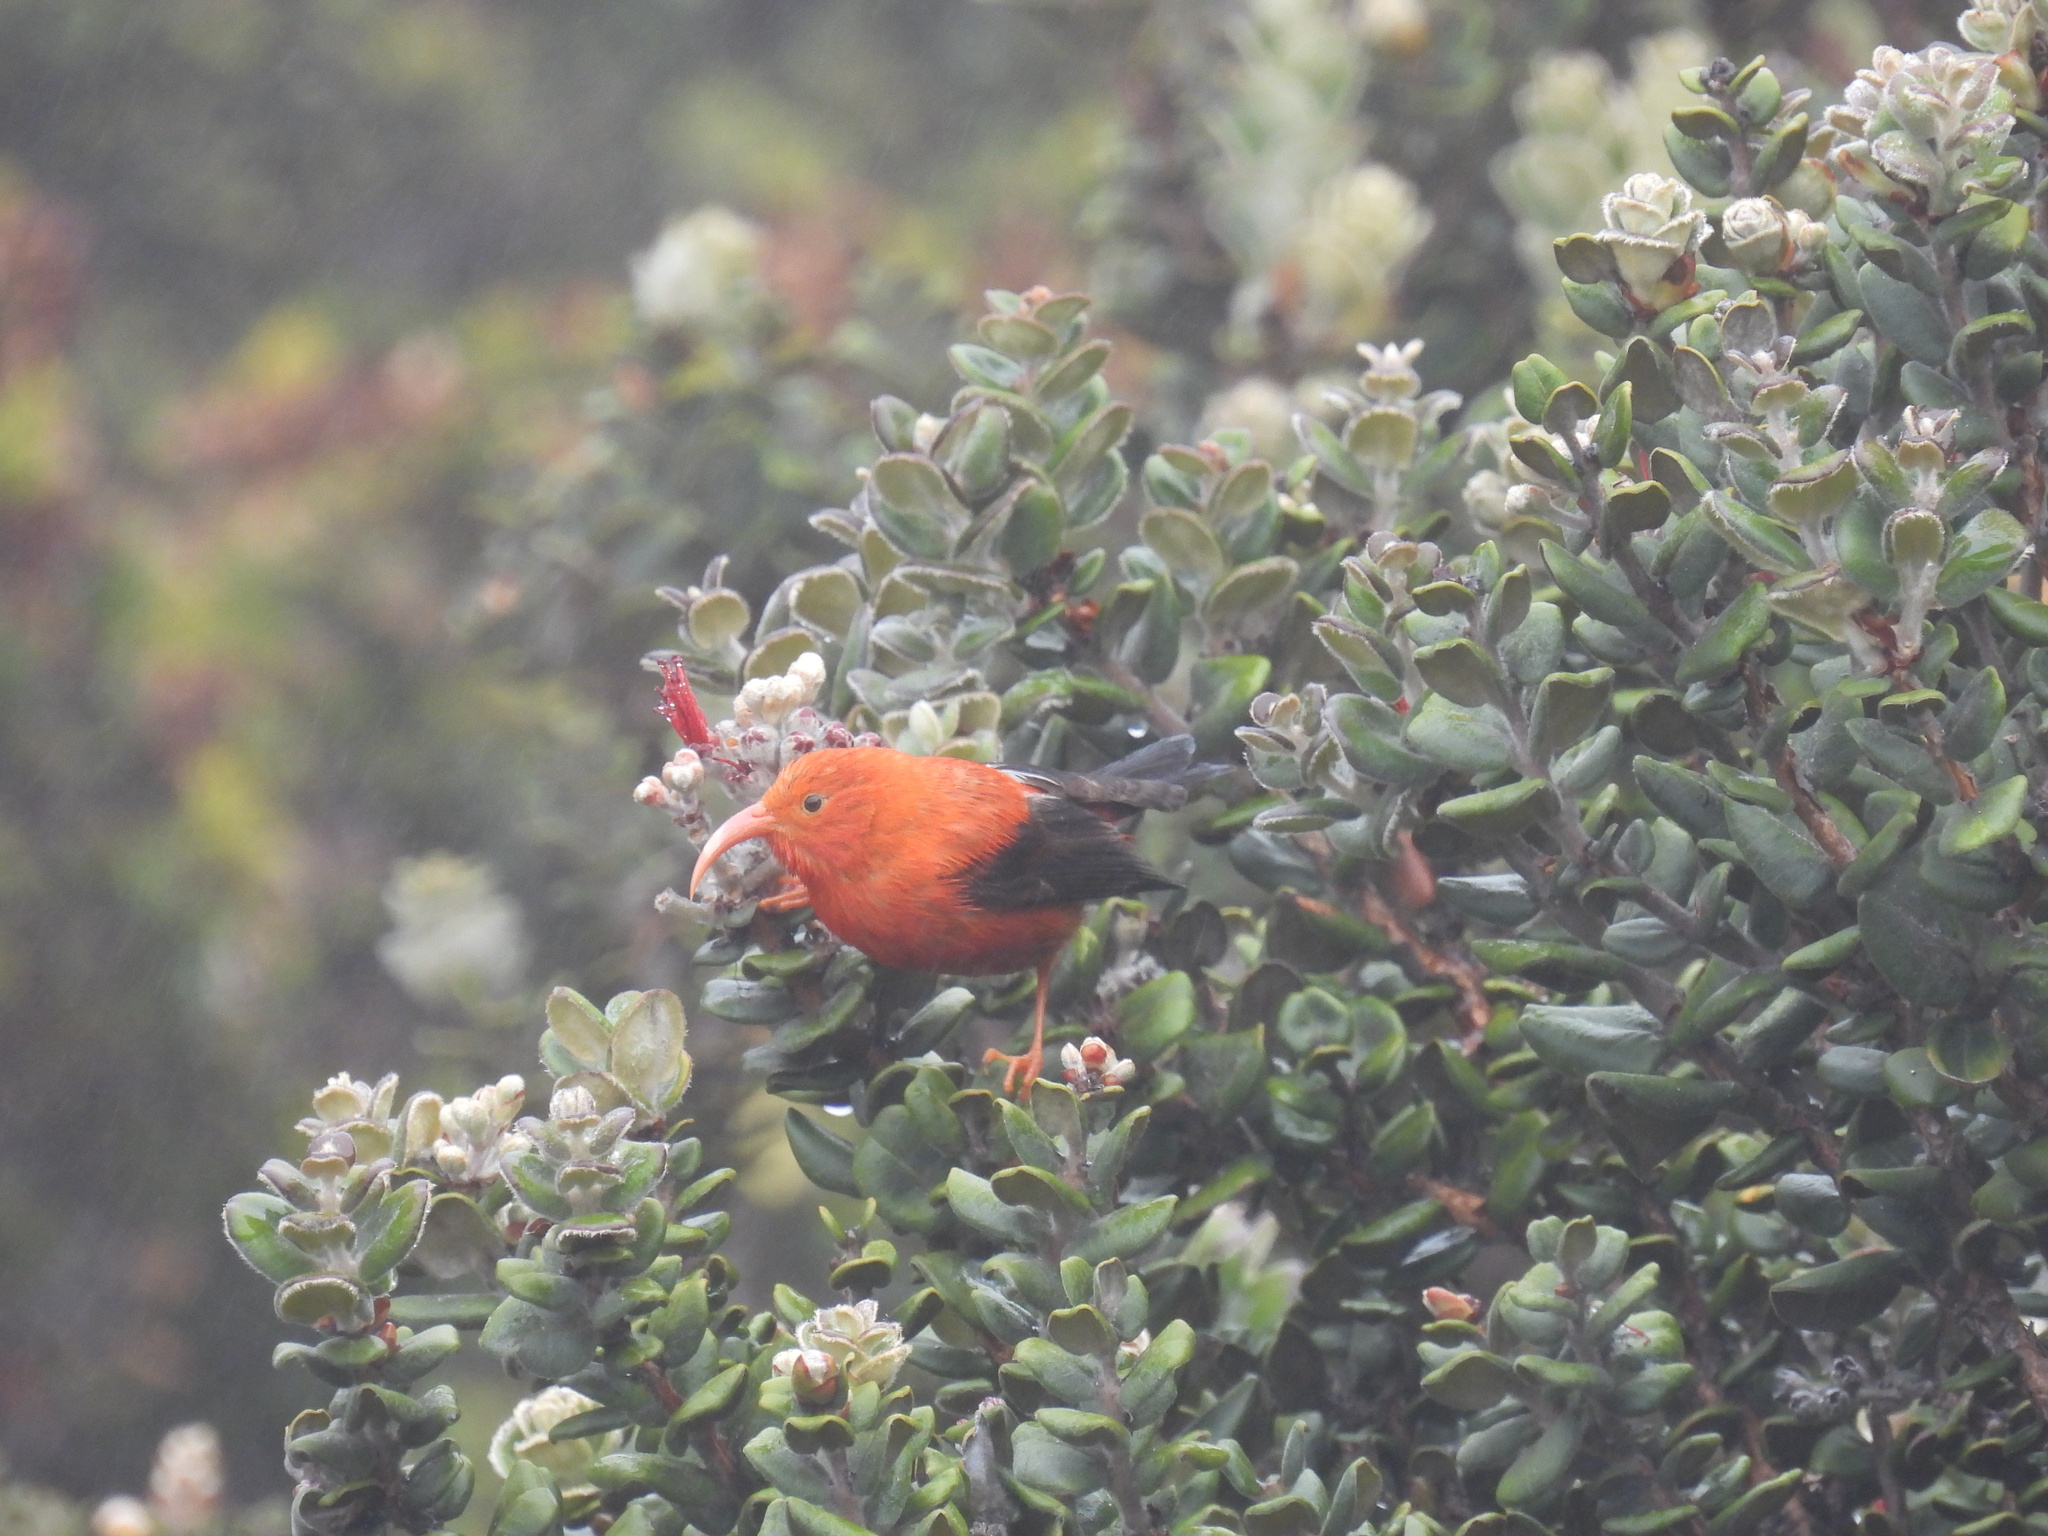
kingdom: Animalia
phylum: Chordata
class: Aves
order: Passeriformes
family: Fringillidae
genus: Vestiaria
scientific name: Vestiaria coccinea
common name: Iiwi
